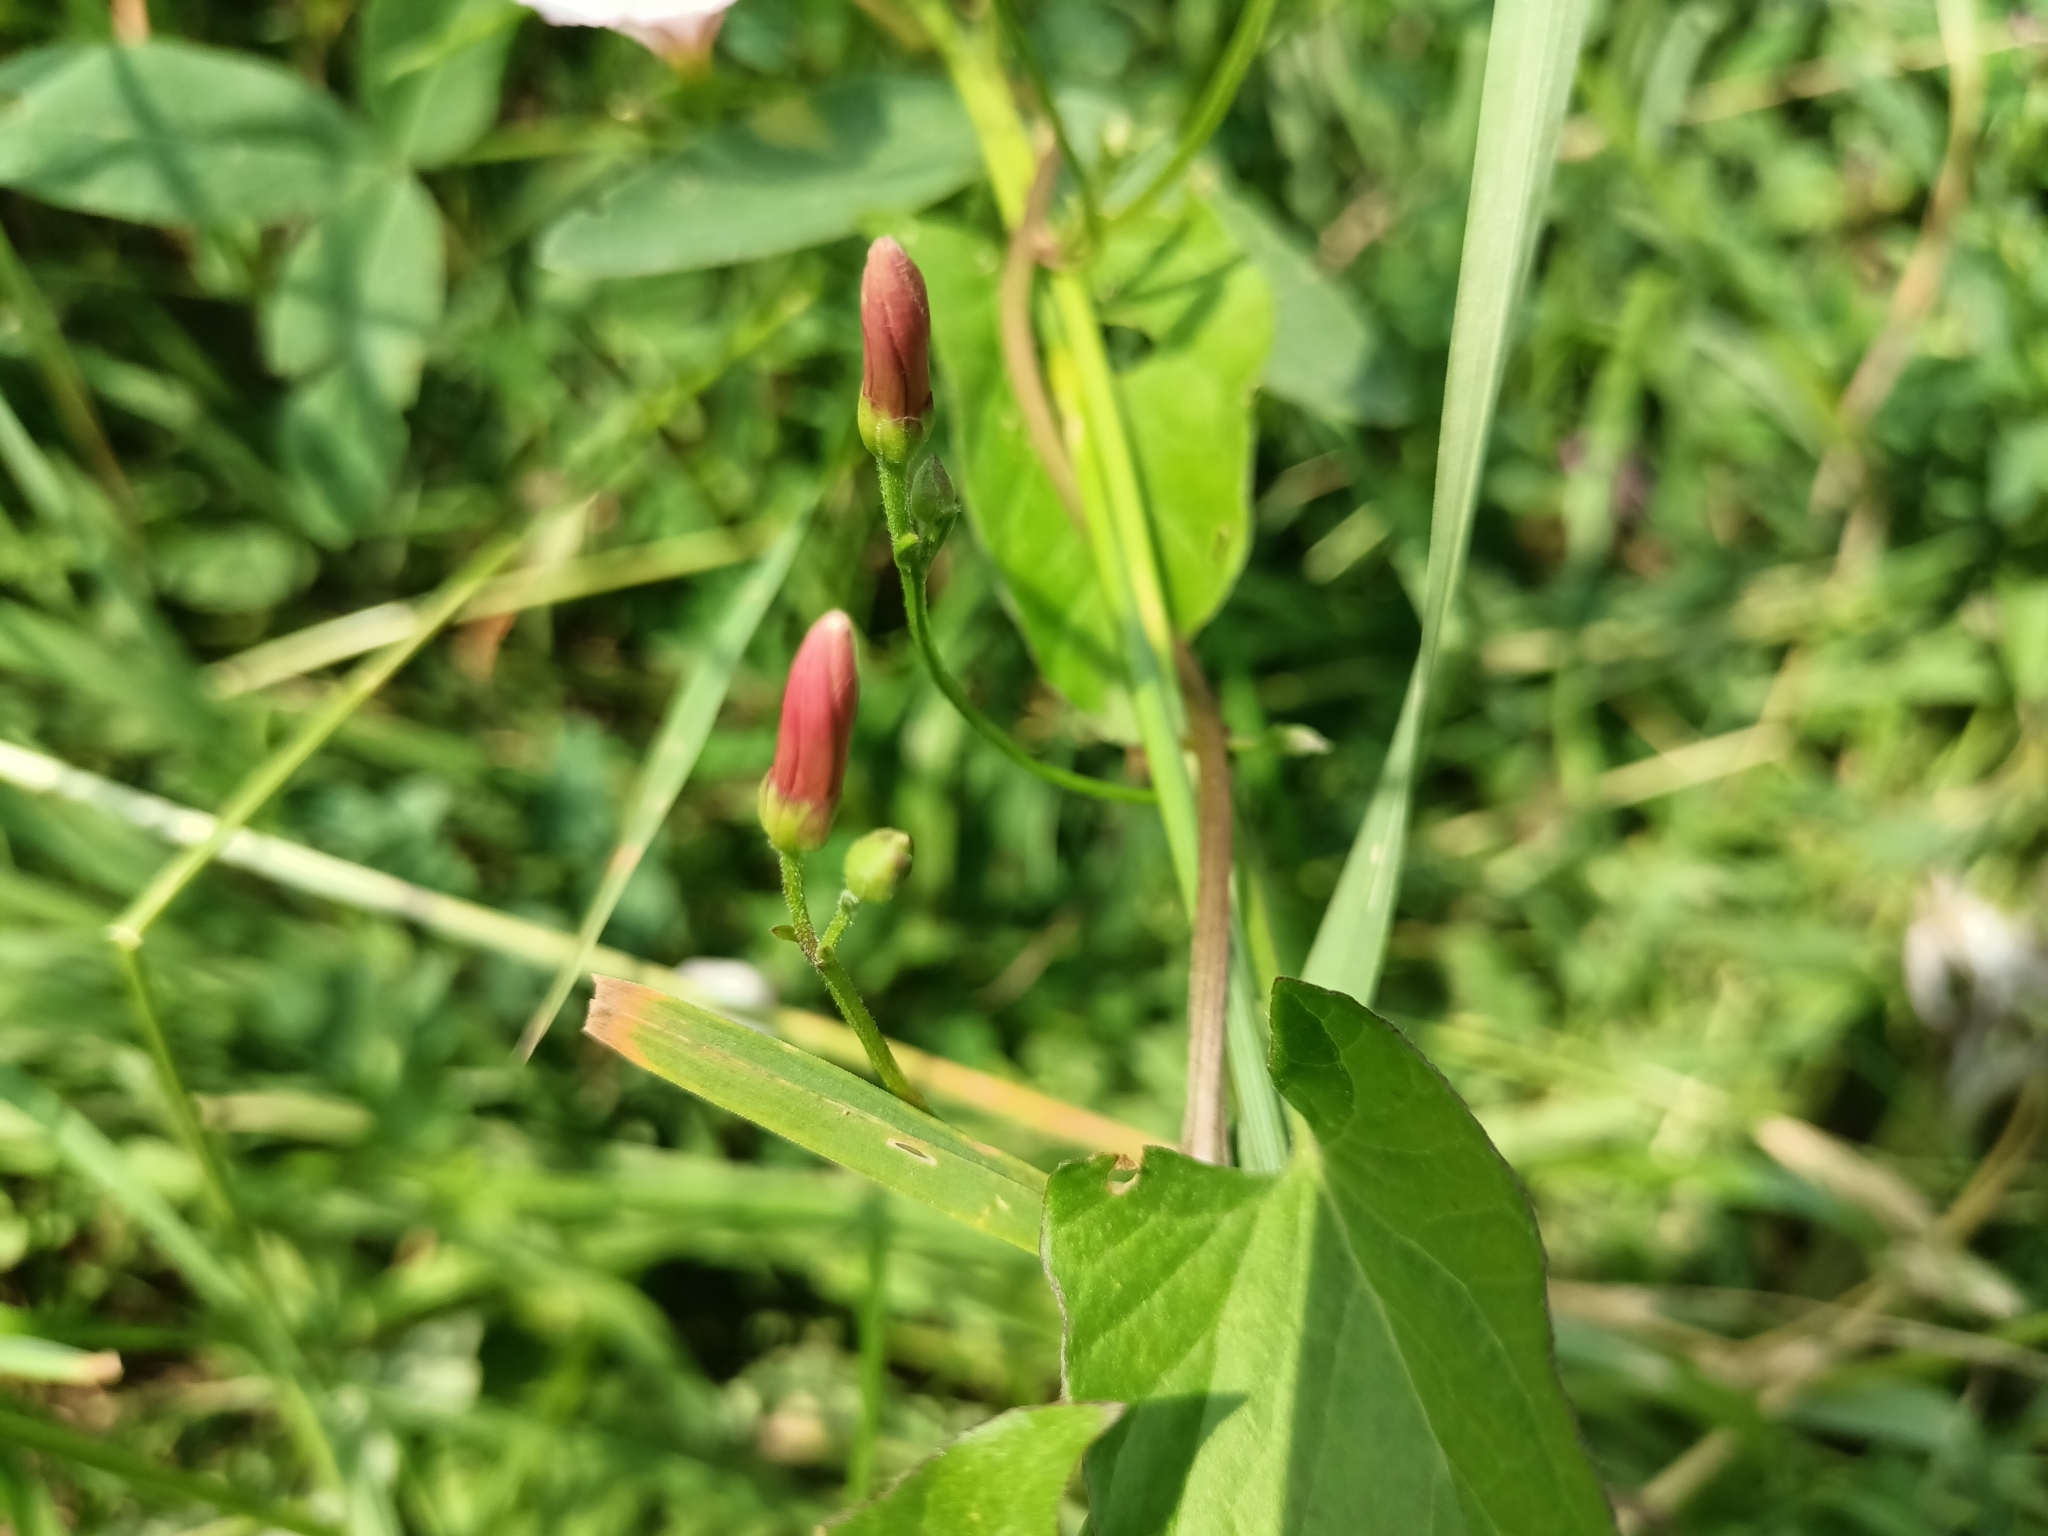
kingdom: Plantae
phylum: Tracheophyta
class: Magnoliopsida
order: Solanales
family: Convolvulaceae
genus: Convolvulus
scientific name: Convolvulus arvensis
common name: Field bindweed
